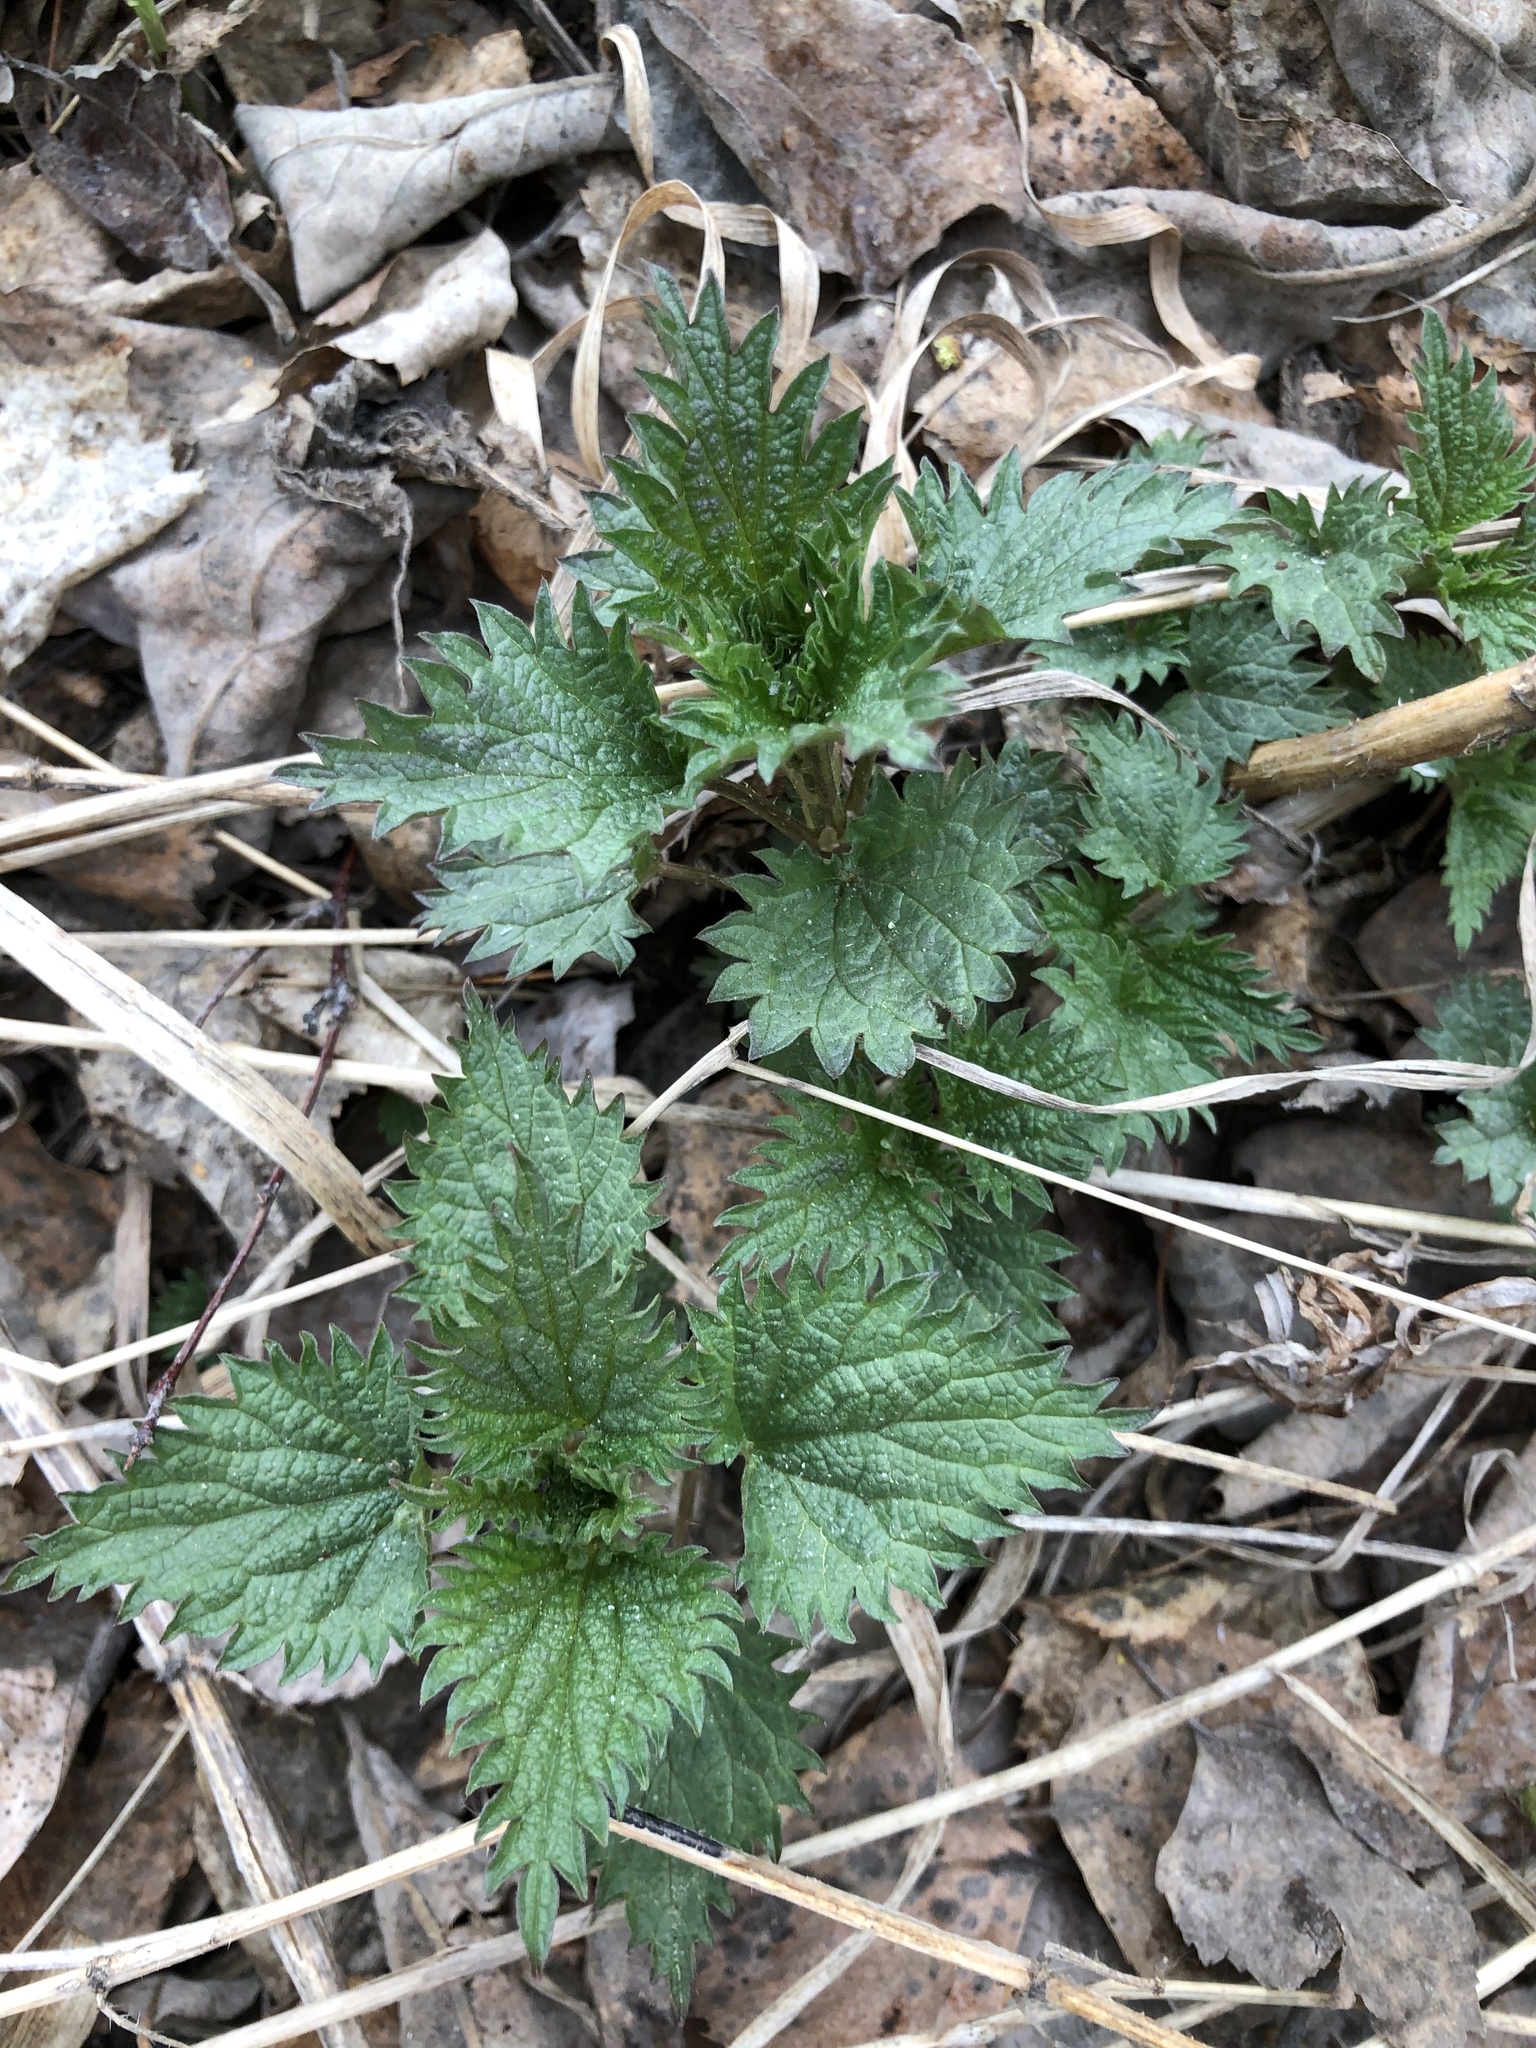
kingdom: Plantae
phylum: Tracheophyta
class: Magnoliopsida
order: Rosales
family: Urticaceae
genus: Urtica
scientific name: Urtica dioica
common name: Common nettle
